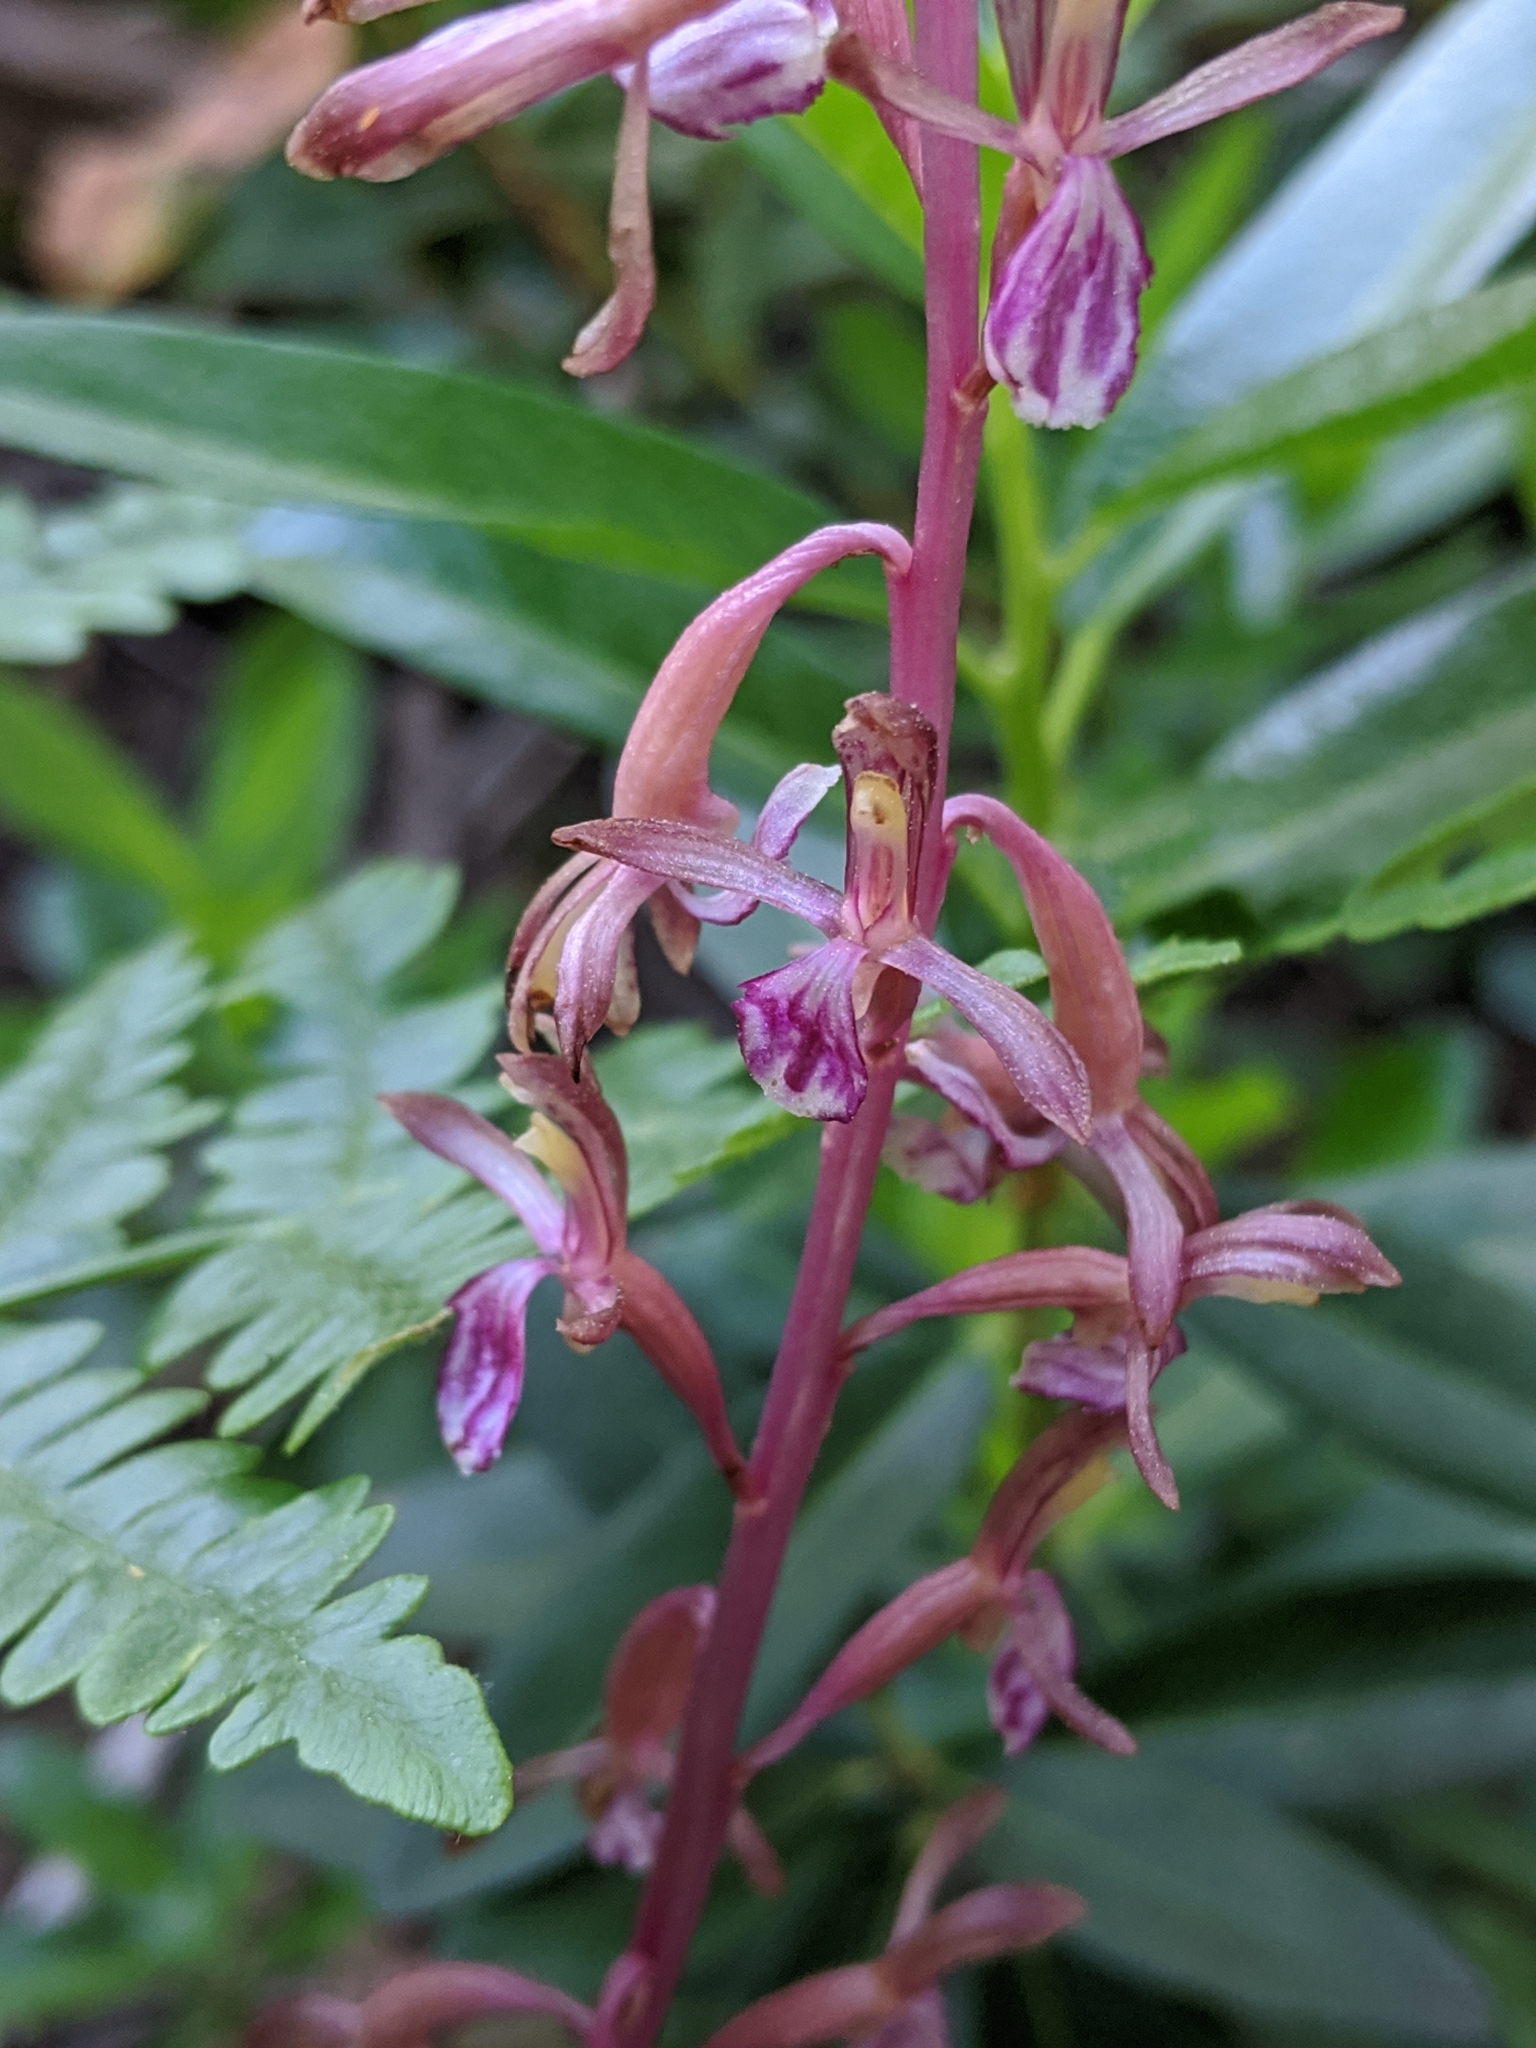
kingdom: Plantae
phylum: Tracheophyta
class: Liliopsida
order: Asparagales
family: Orchidaceae
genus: Corallorhiza
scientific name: Corallorhiza mertensiana
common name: Pacific coralroot
